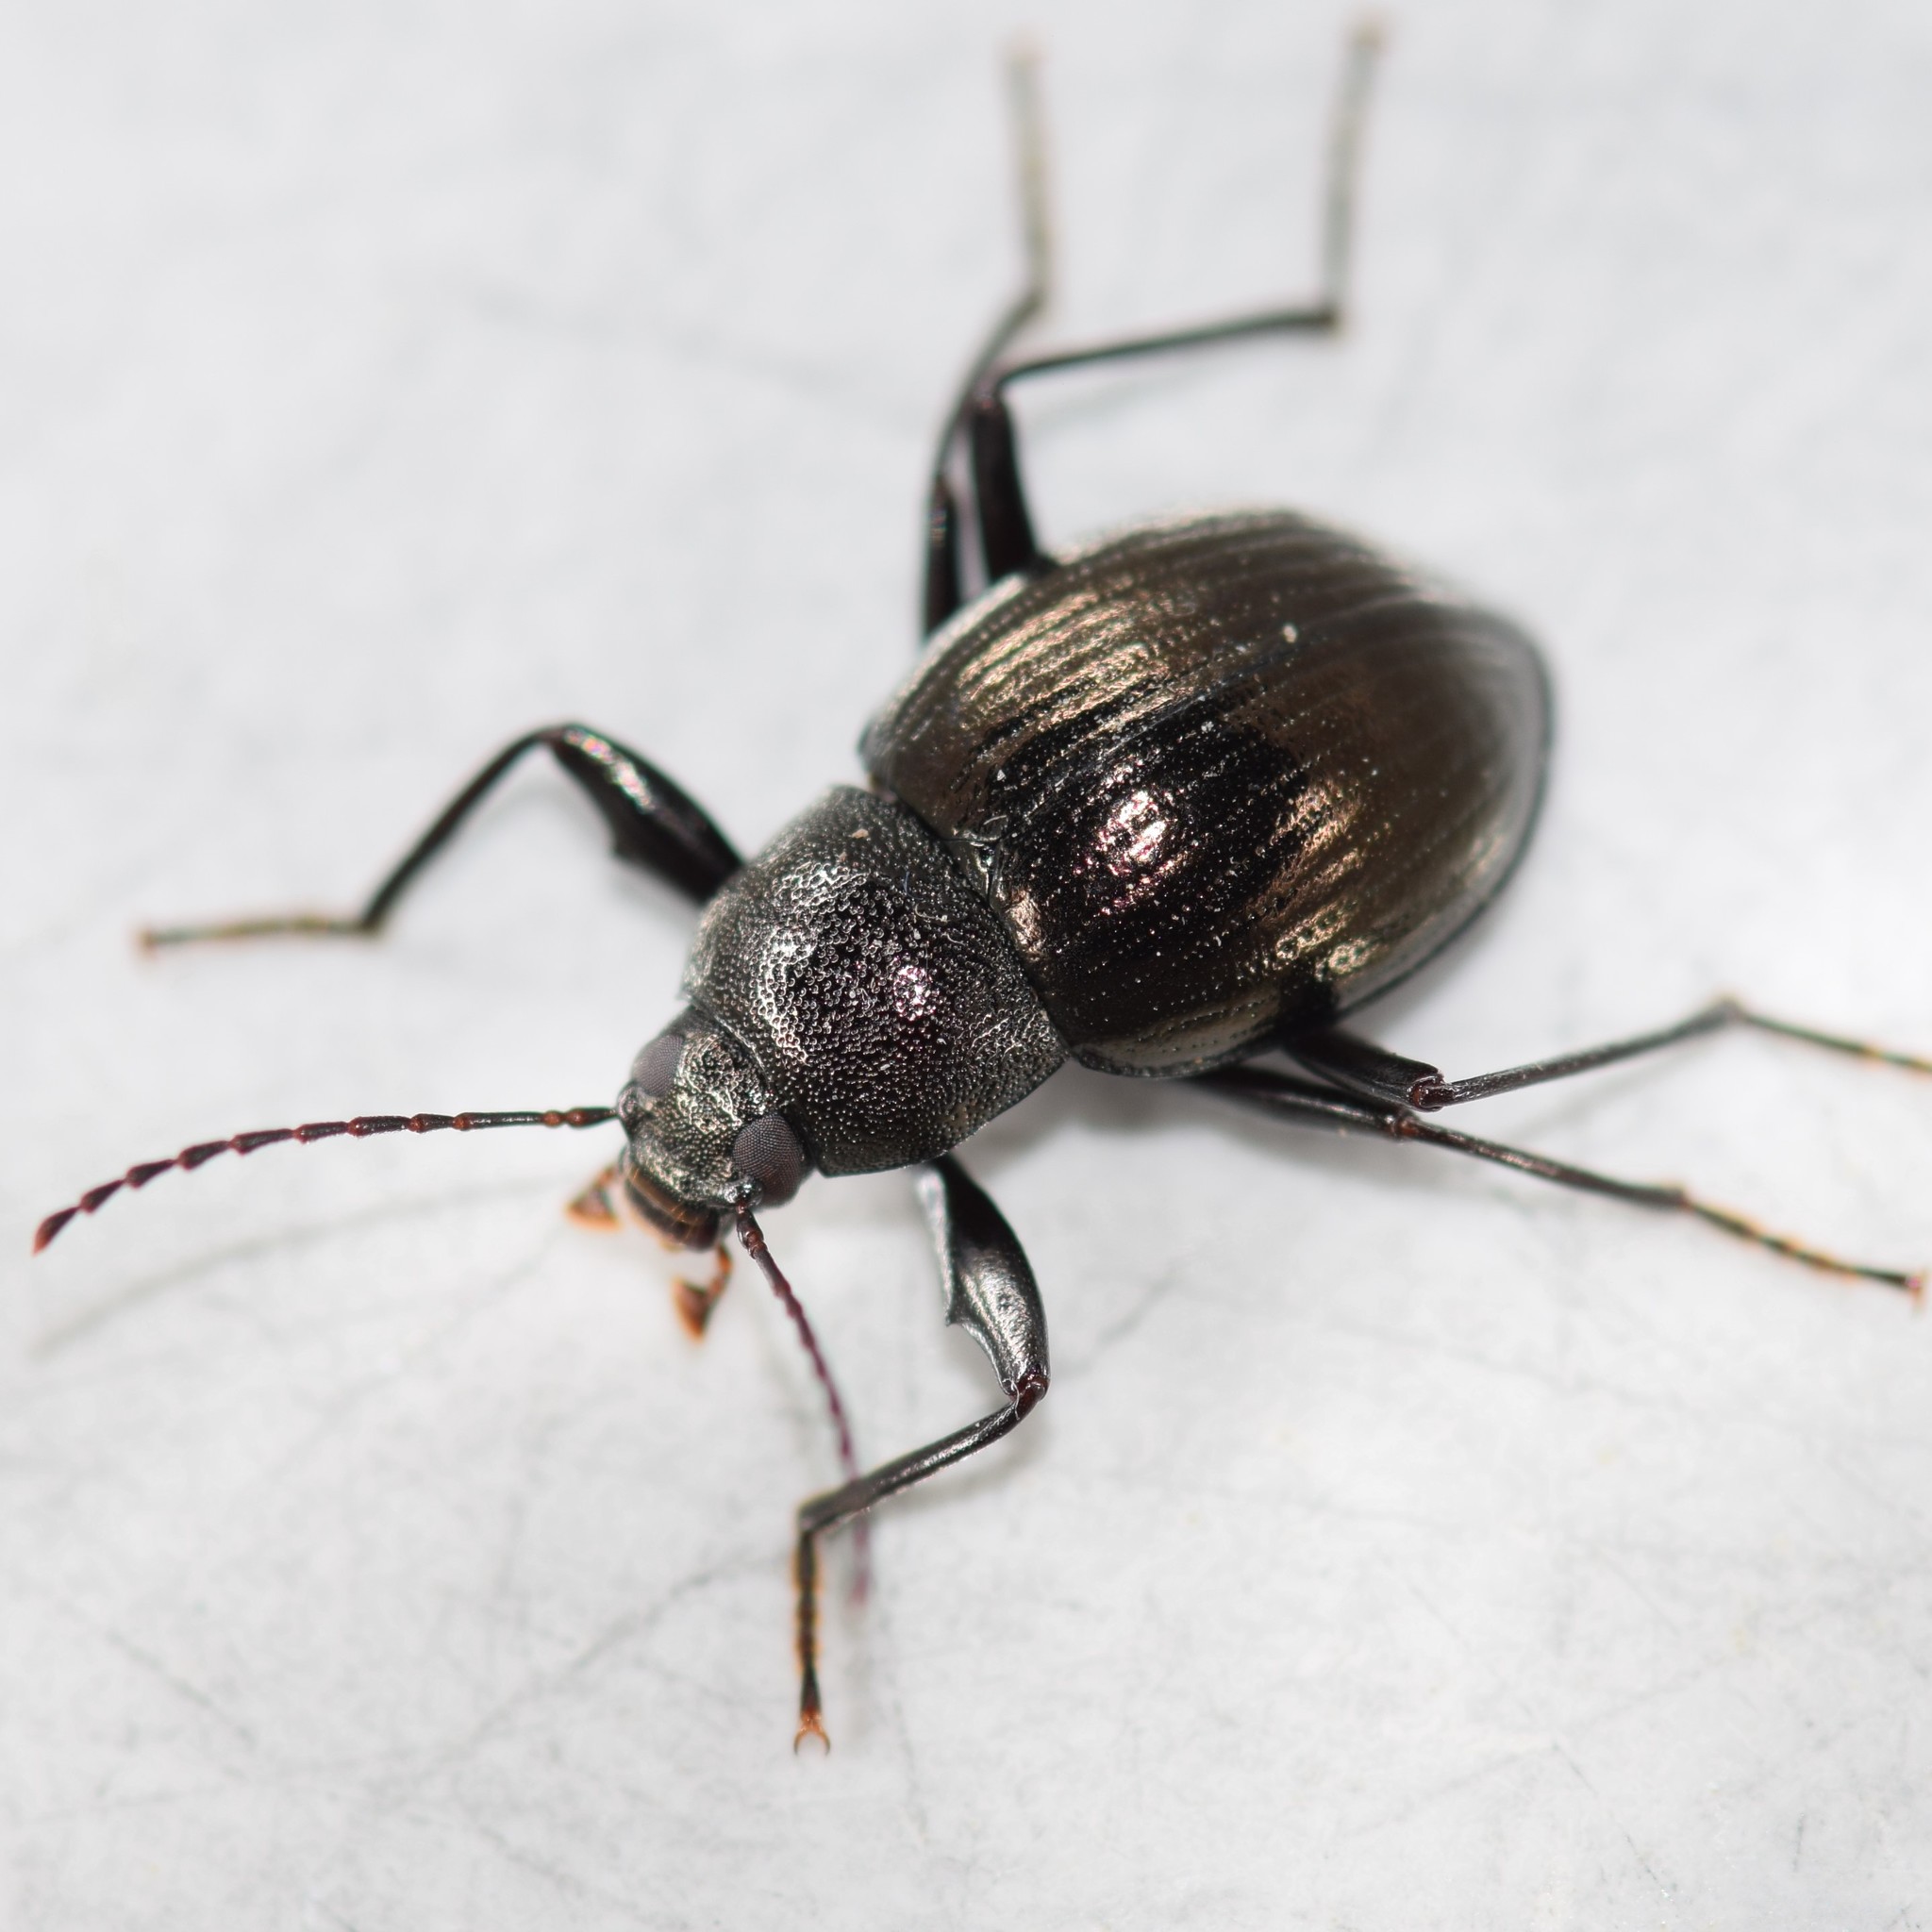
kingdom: Animalia
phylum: Arthropoda
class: Insecta
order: Coleoptera
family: Tenebrionidae
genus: Meracantha
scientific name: Meracantha contracta
